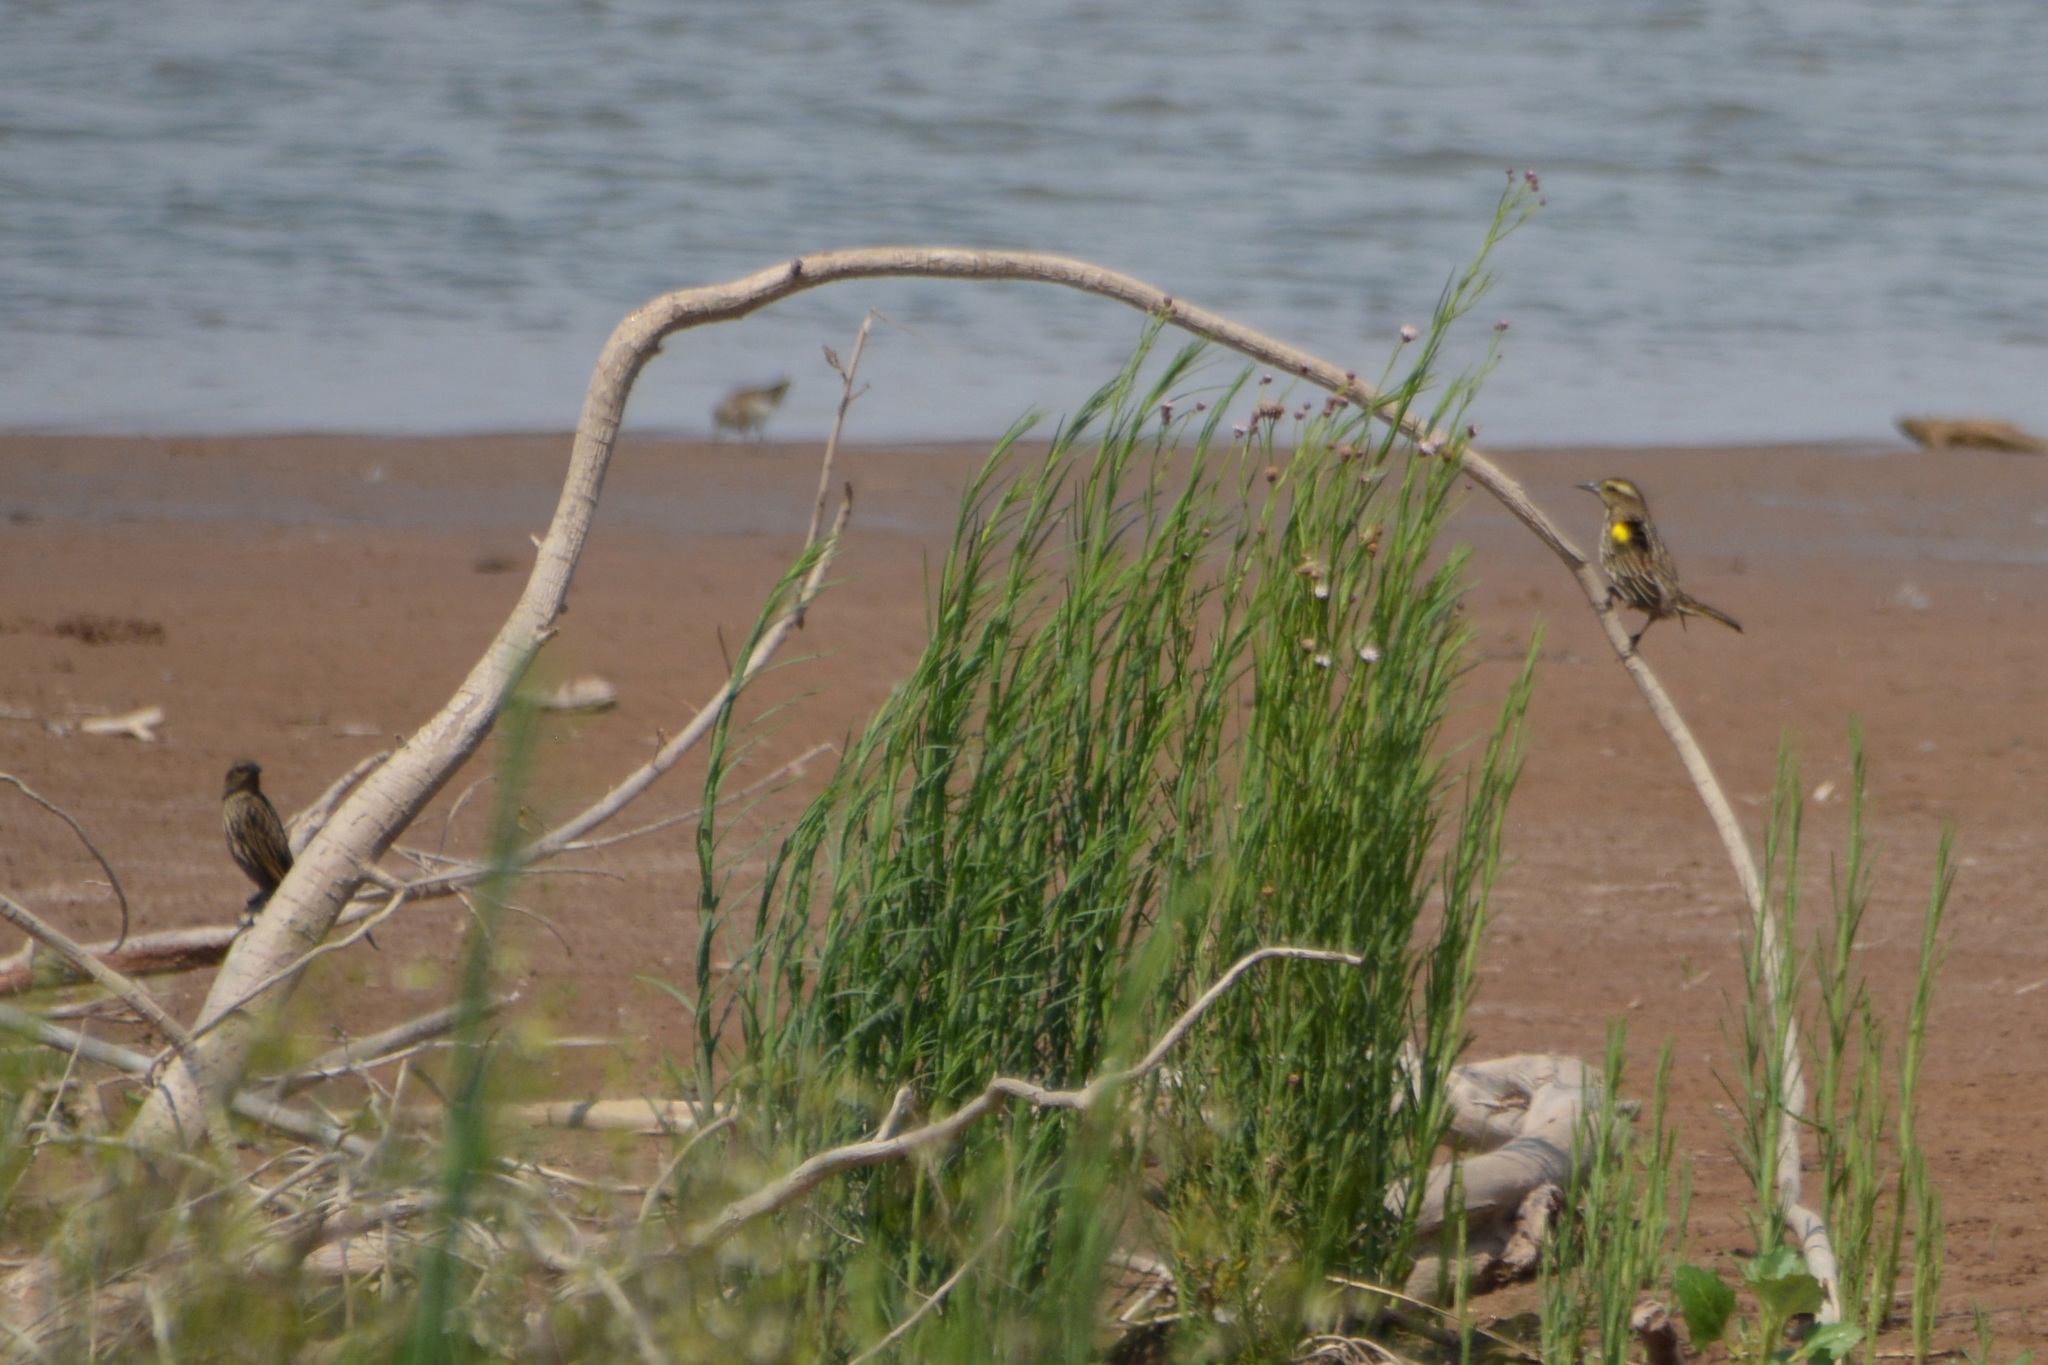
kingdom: Animalia
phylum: Chordata
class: Aves
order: Passeriformes
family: Icteridae
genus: Agelasticus
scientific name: Agelasticus thilius
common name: Yellow-winged blackbird
